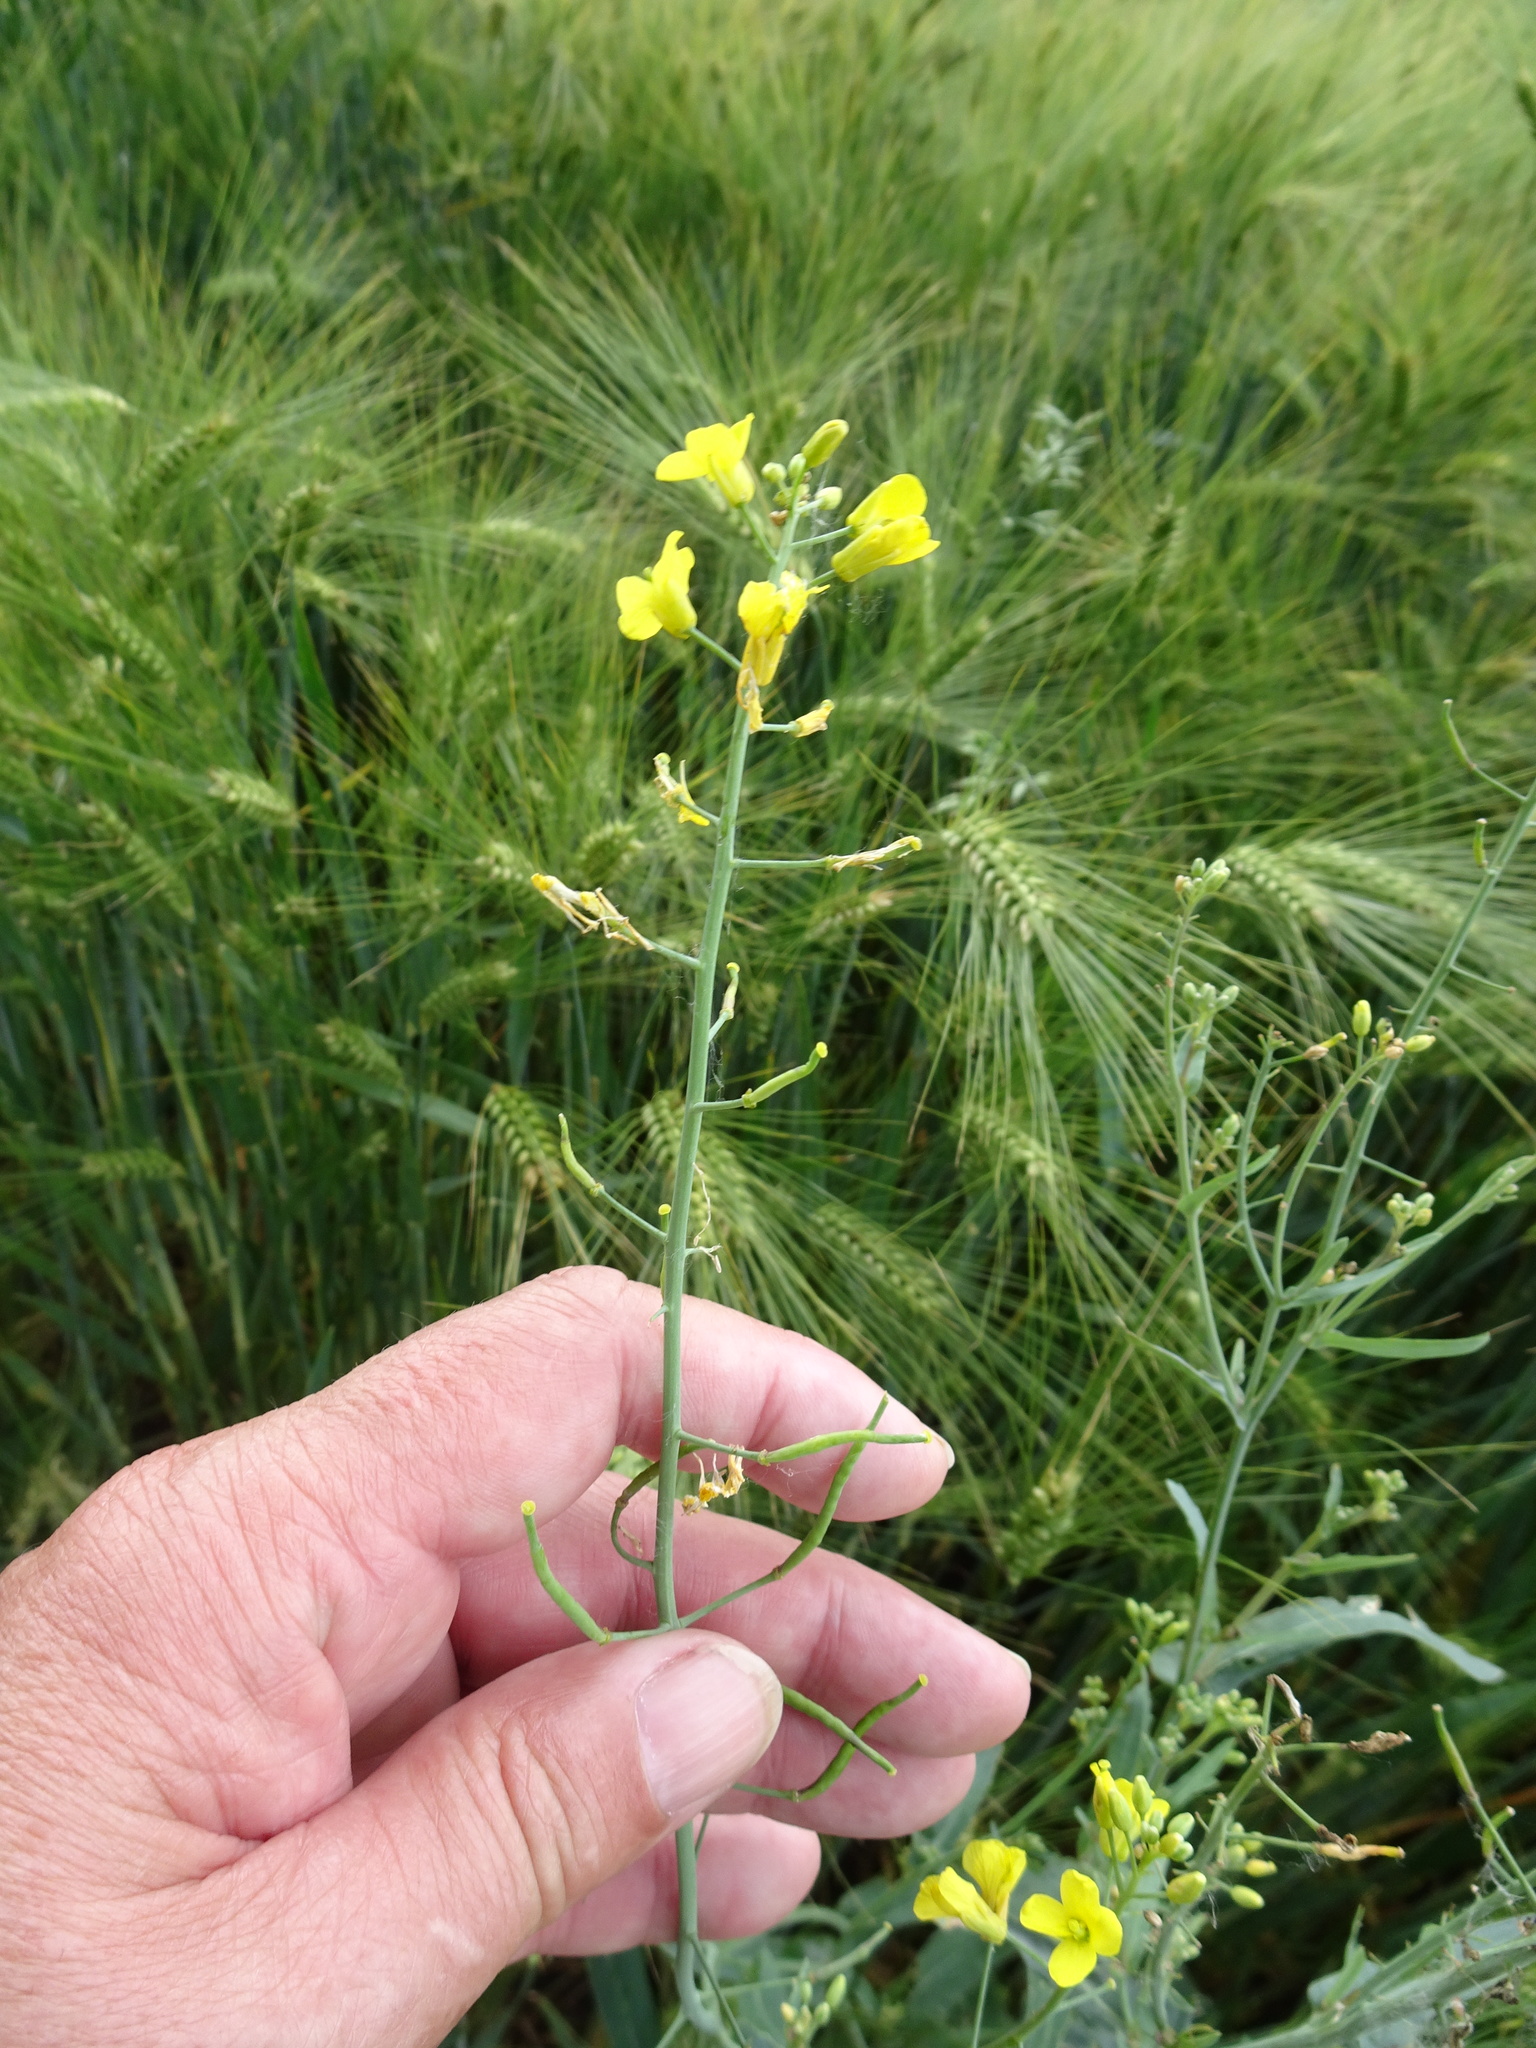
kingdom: Plantae
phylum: Tracheophyta
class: Magnoliopsida
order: Brassicales
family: Brassicaceae
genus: Brassica
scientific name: Brassica napus
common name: Rape
